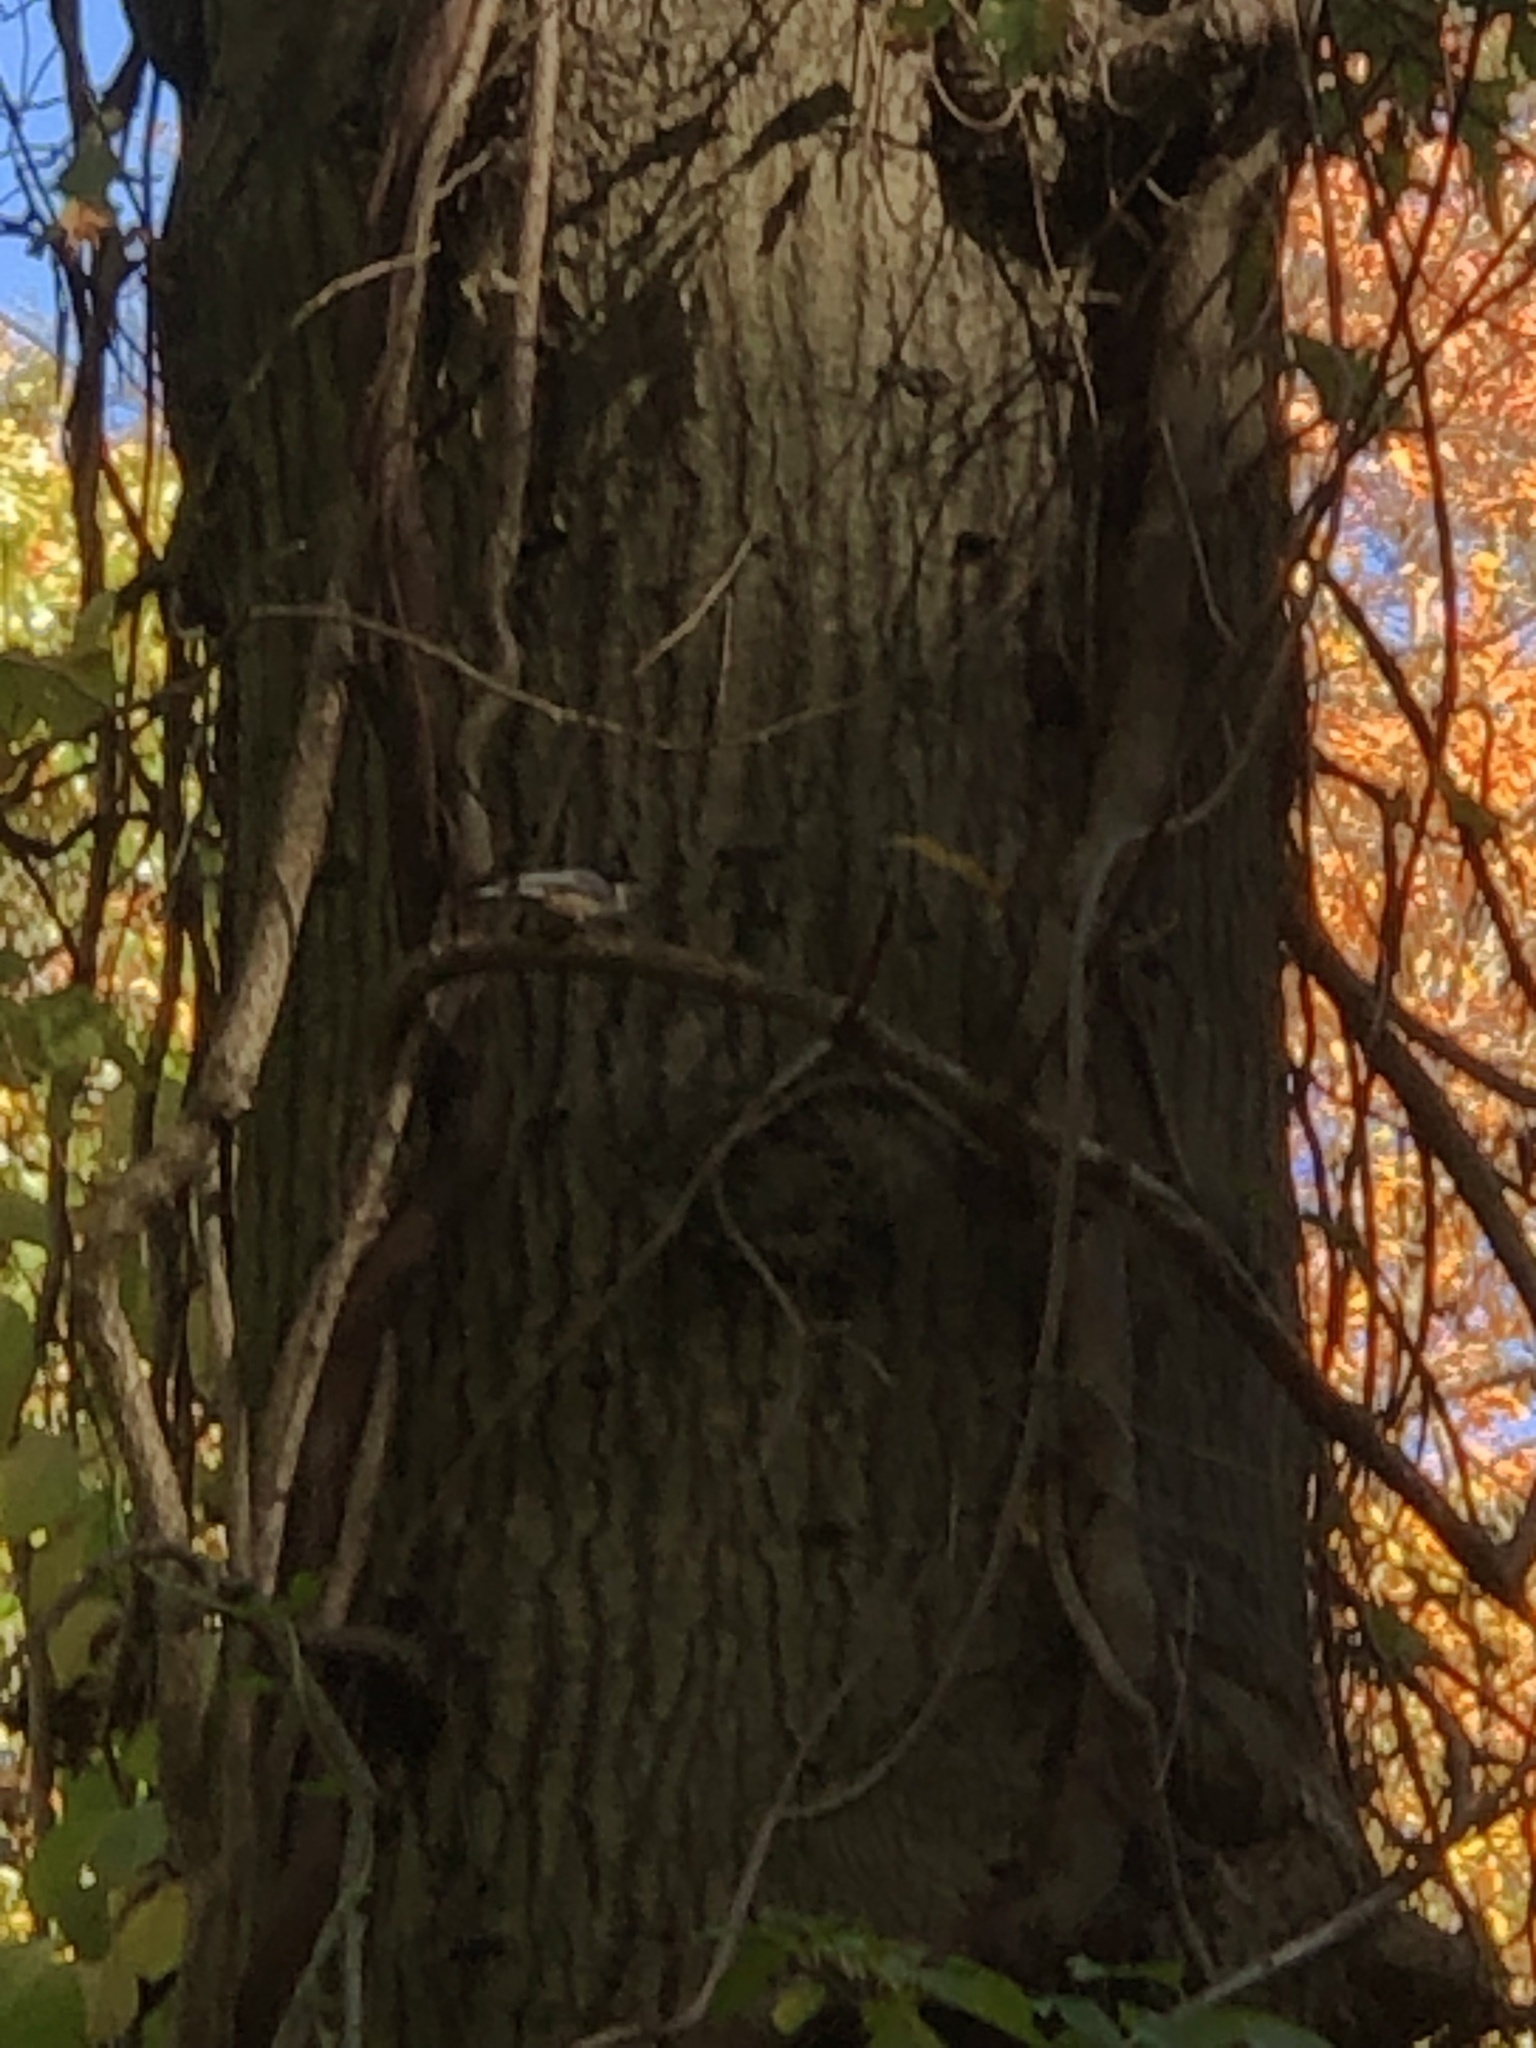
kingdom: Animalia
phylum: Chordata
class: Aves
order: Passeriformes
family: Sittidae
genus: Sitta
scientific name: Sitta carolinensis
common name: White-breasted nuthatch
